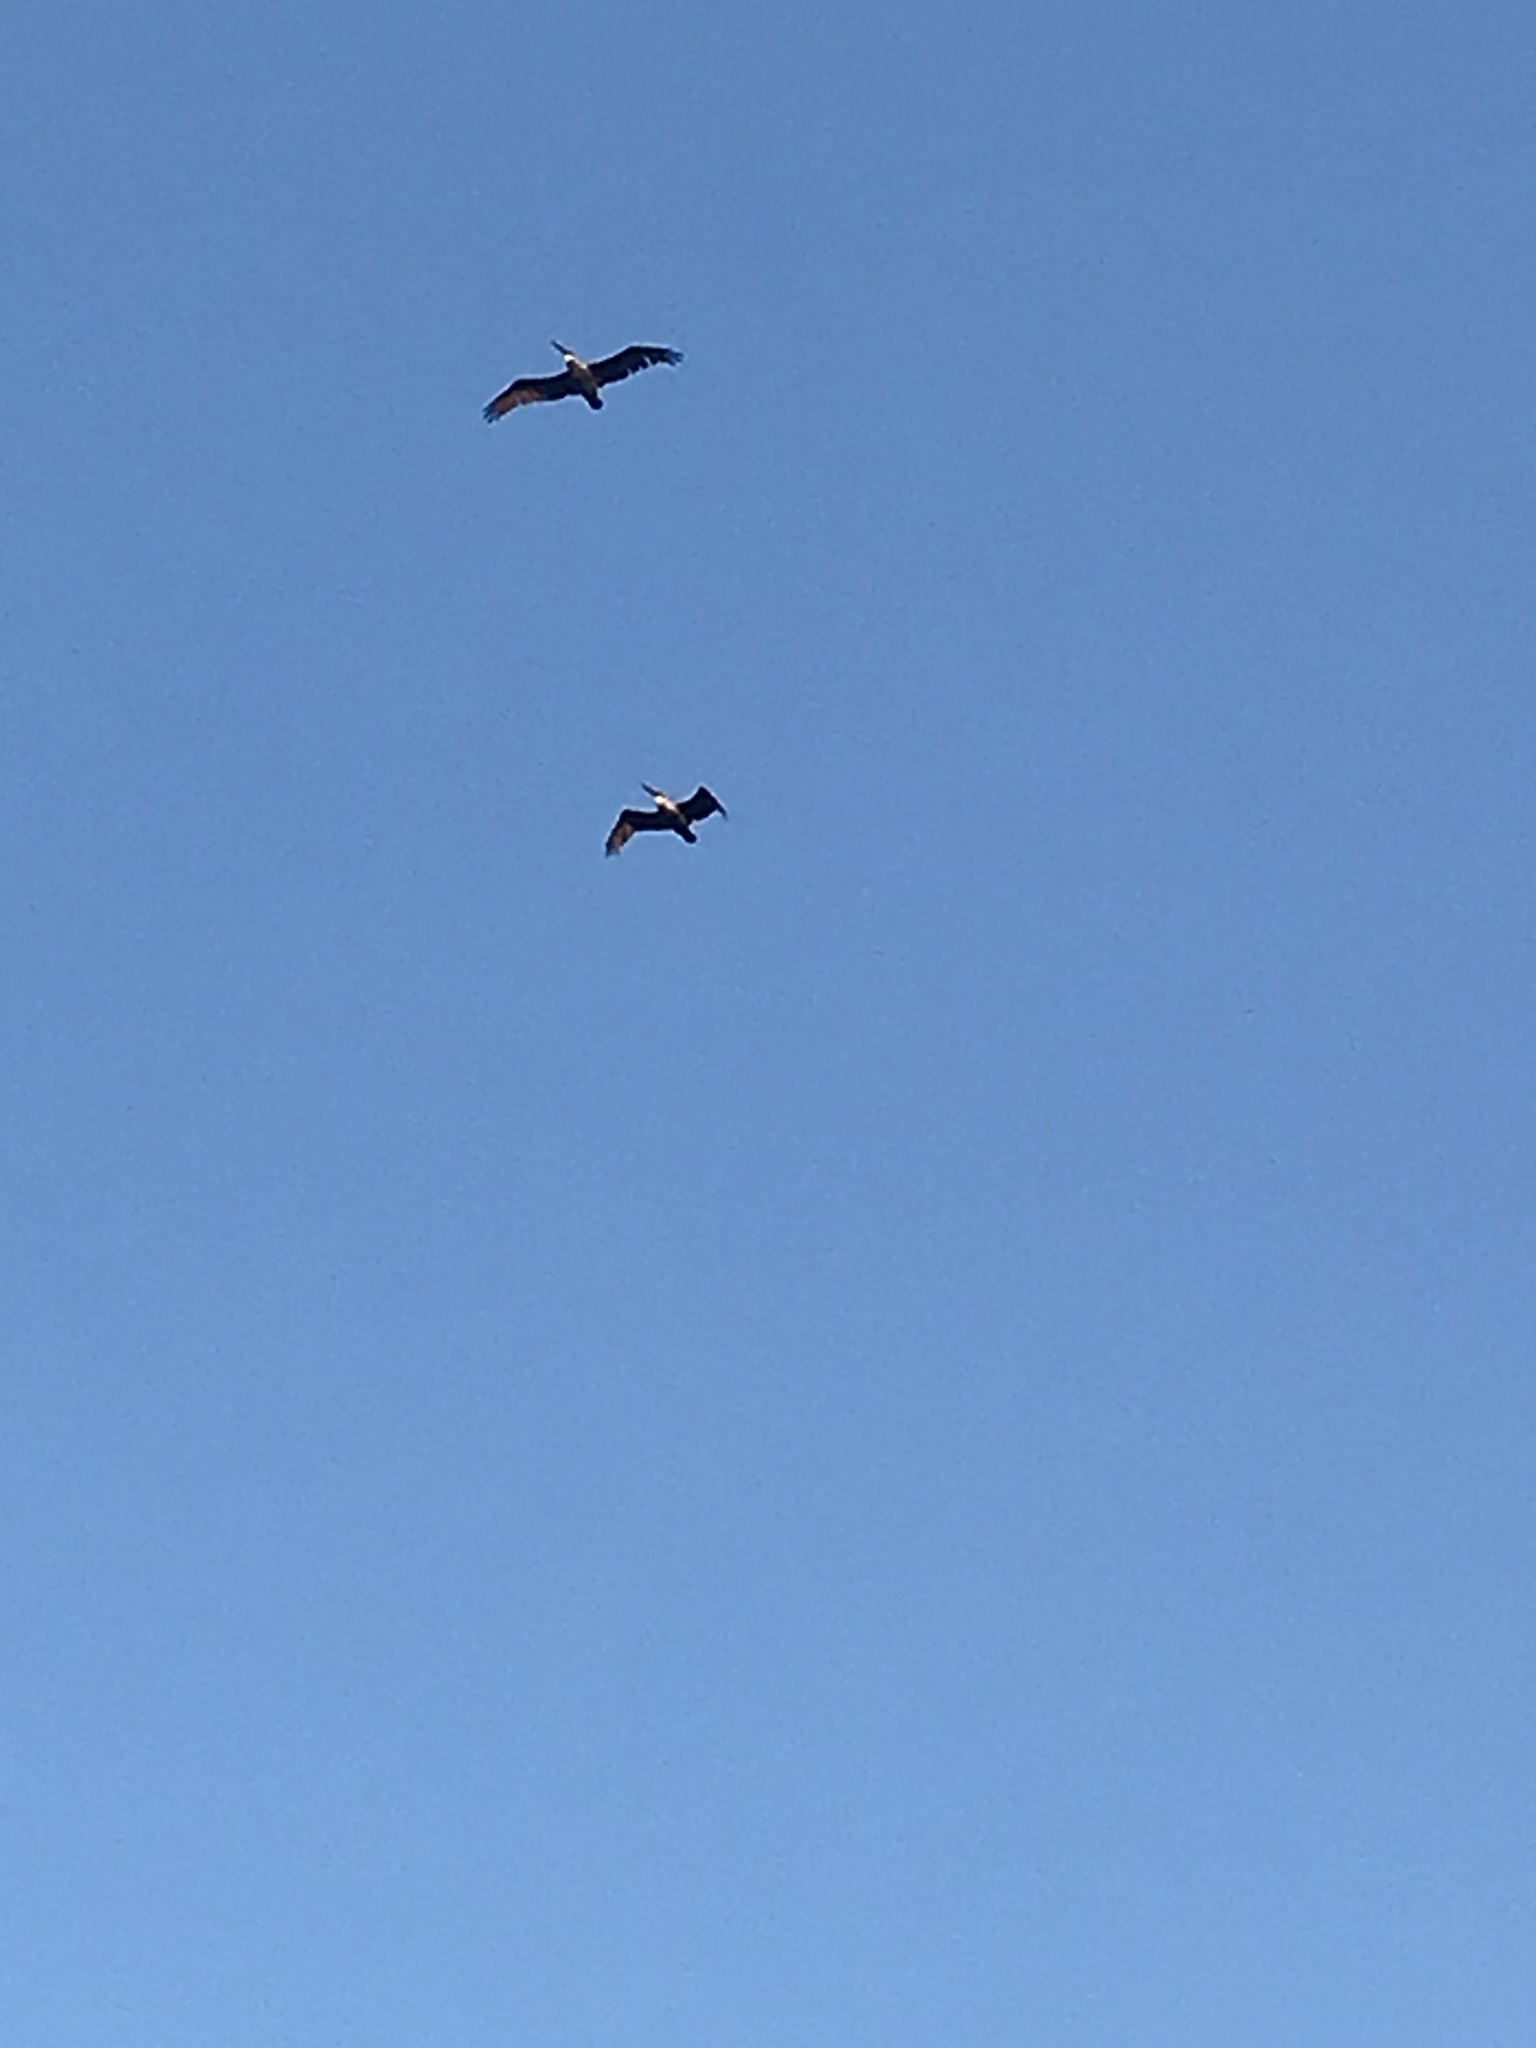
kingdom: Animalia
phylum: Chordata
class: Aves
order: Pelecaniformes
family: Pelecanidae
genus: Pelecanus
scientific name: Pelecanus occidentalis
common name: Brown pelican
